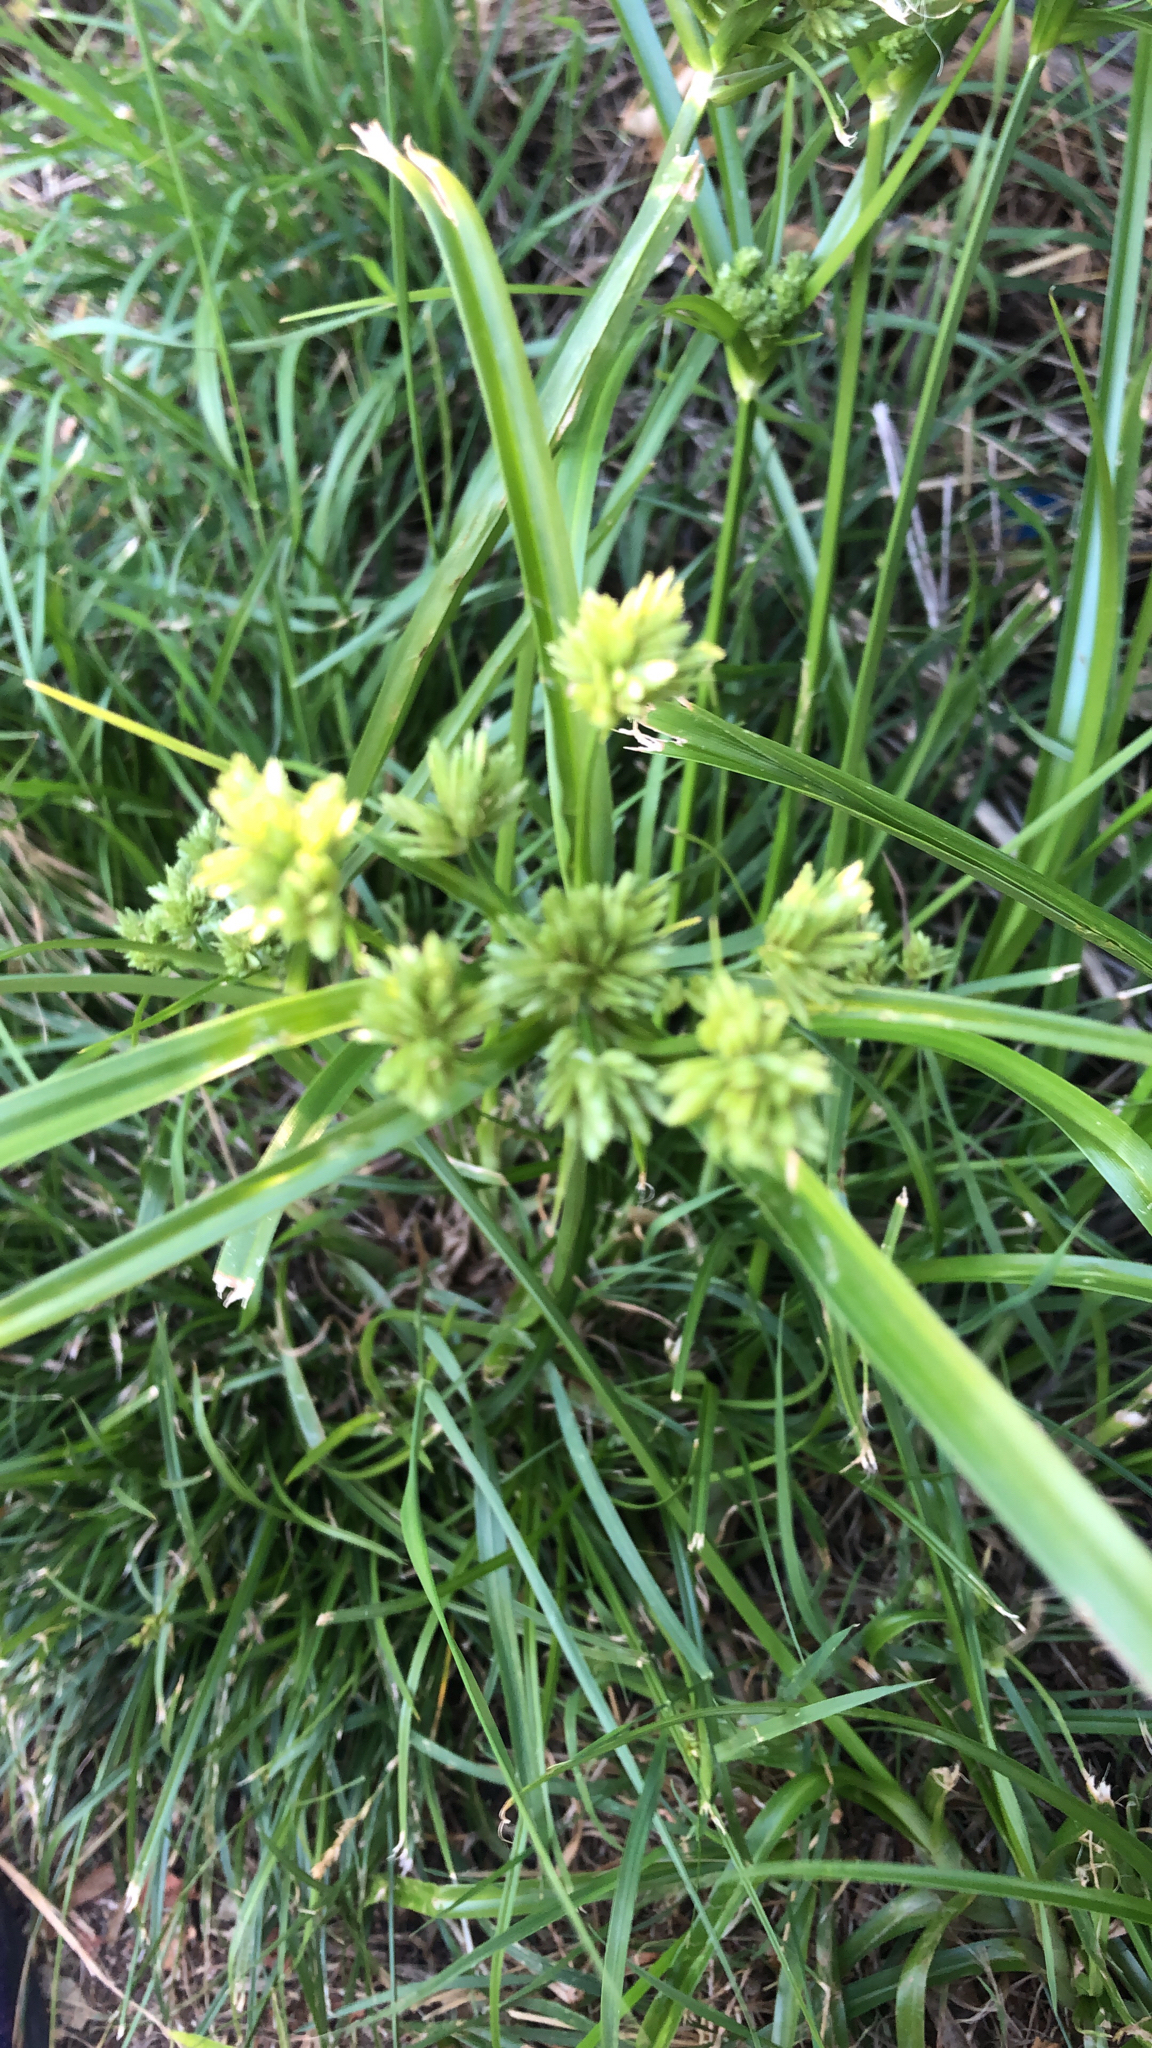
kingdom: Plantae
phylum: Tracheophyta
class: Liliopsida
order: Poales
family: Cyperaceae
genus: Cyperus
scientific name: Cyperus eragrostis
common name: Tall flatsedge
